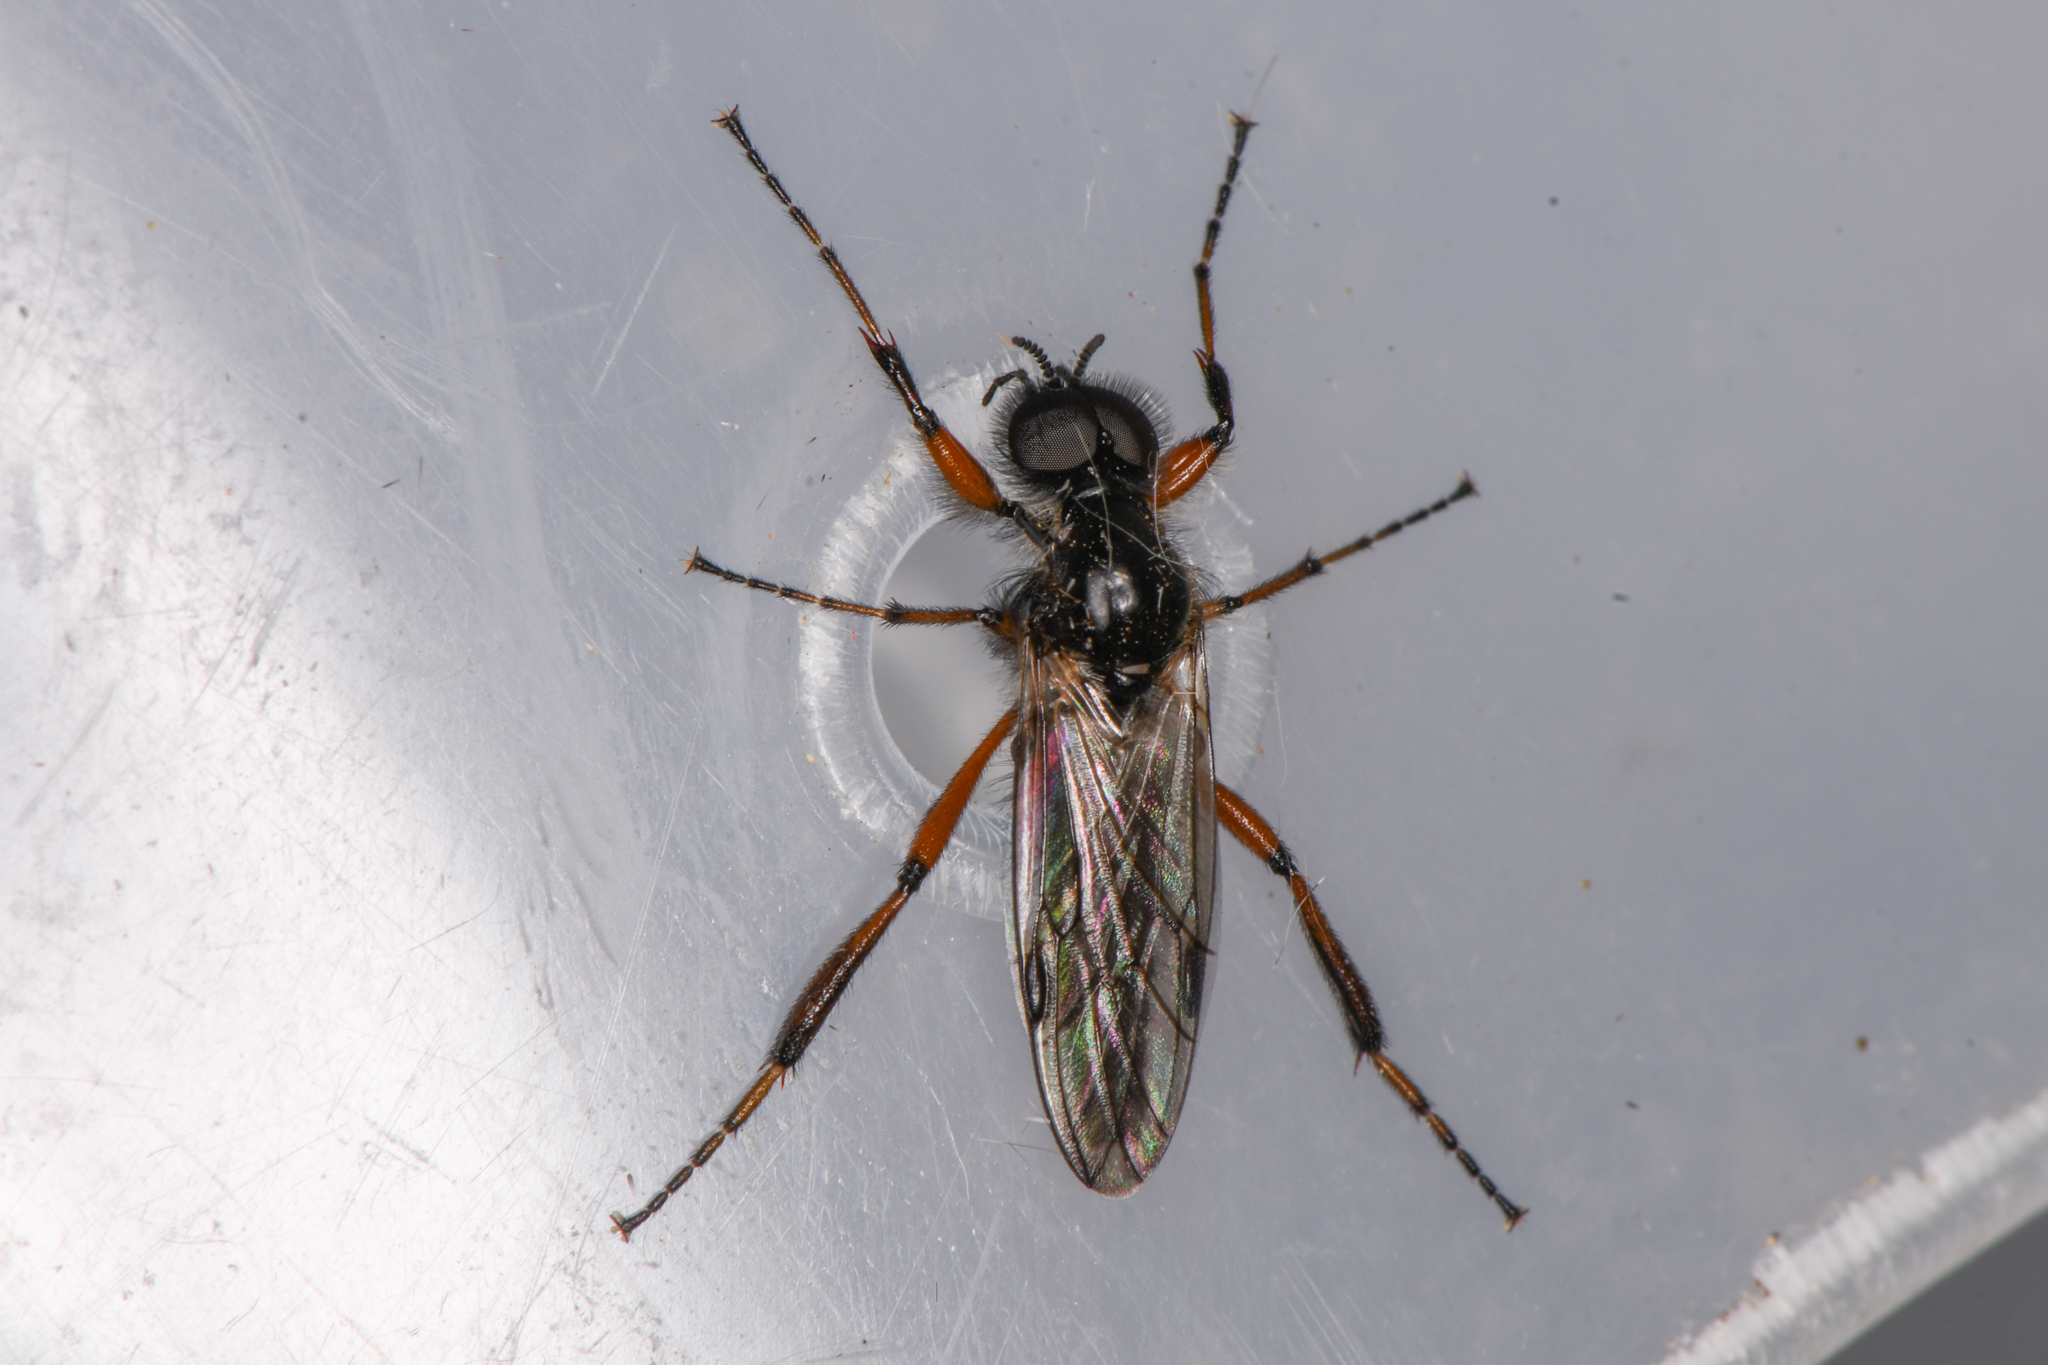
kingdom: Animalia
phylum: Arthropoda
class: Insecta
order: Diptera
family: Bibionidae
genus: Bibio
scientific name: Bibio xanthopus
